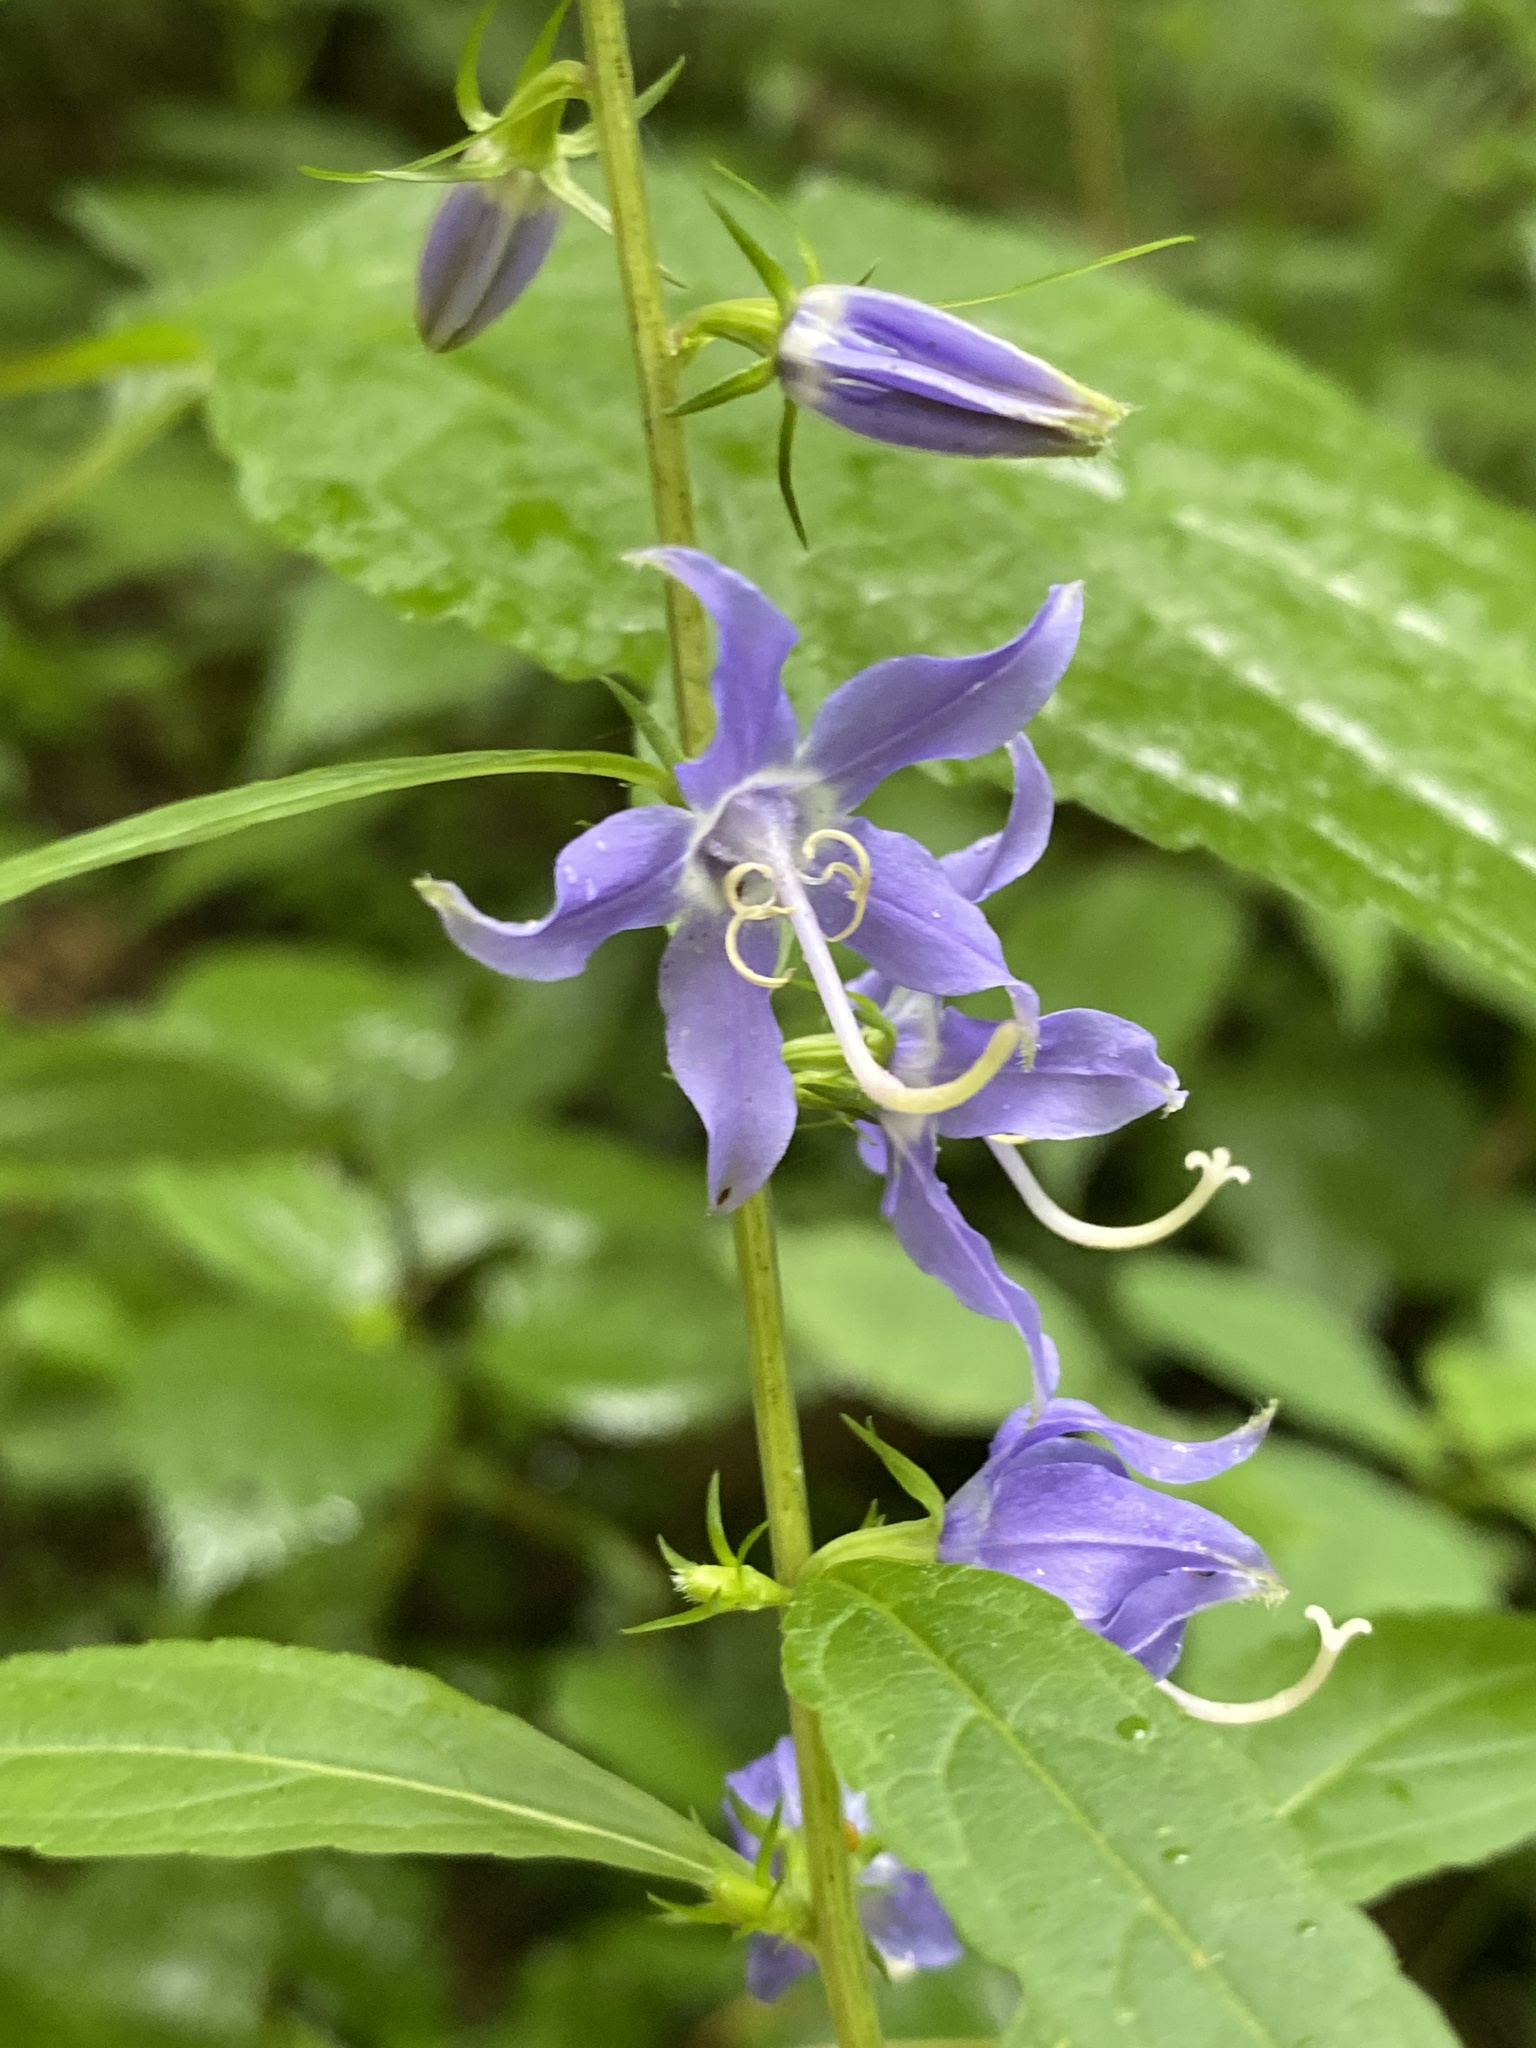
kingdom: Plantae
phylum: Tracheophyta
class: Magnoliopsida
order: Asterales
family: Campanulaceae
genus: Campanulastrum
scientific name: Campanulastrum americanum
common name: American bellflower
